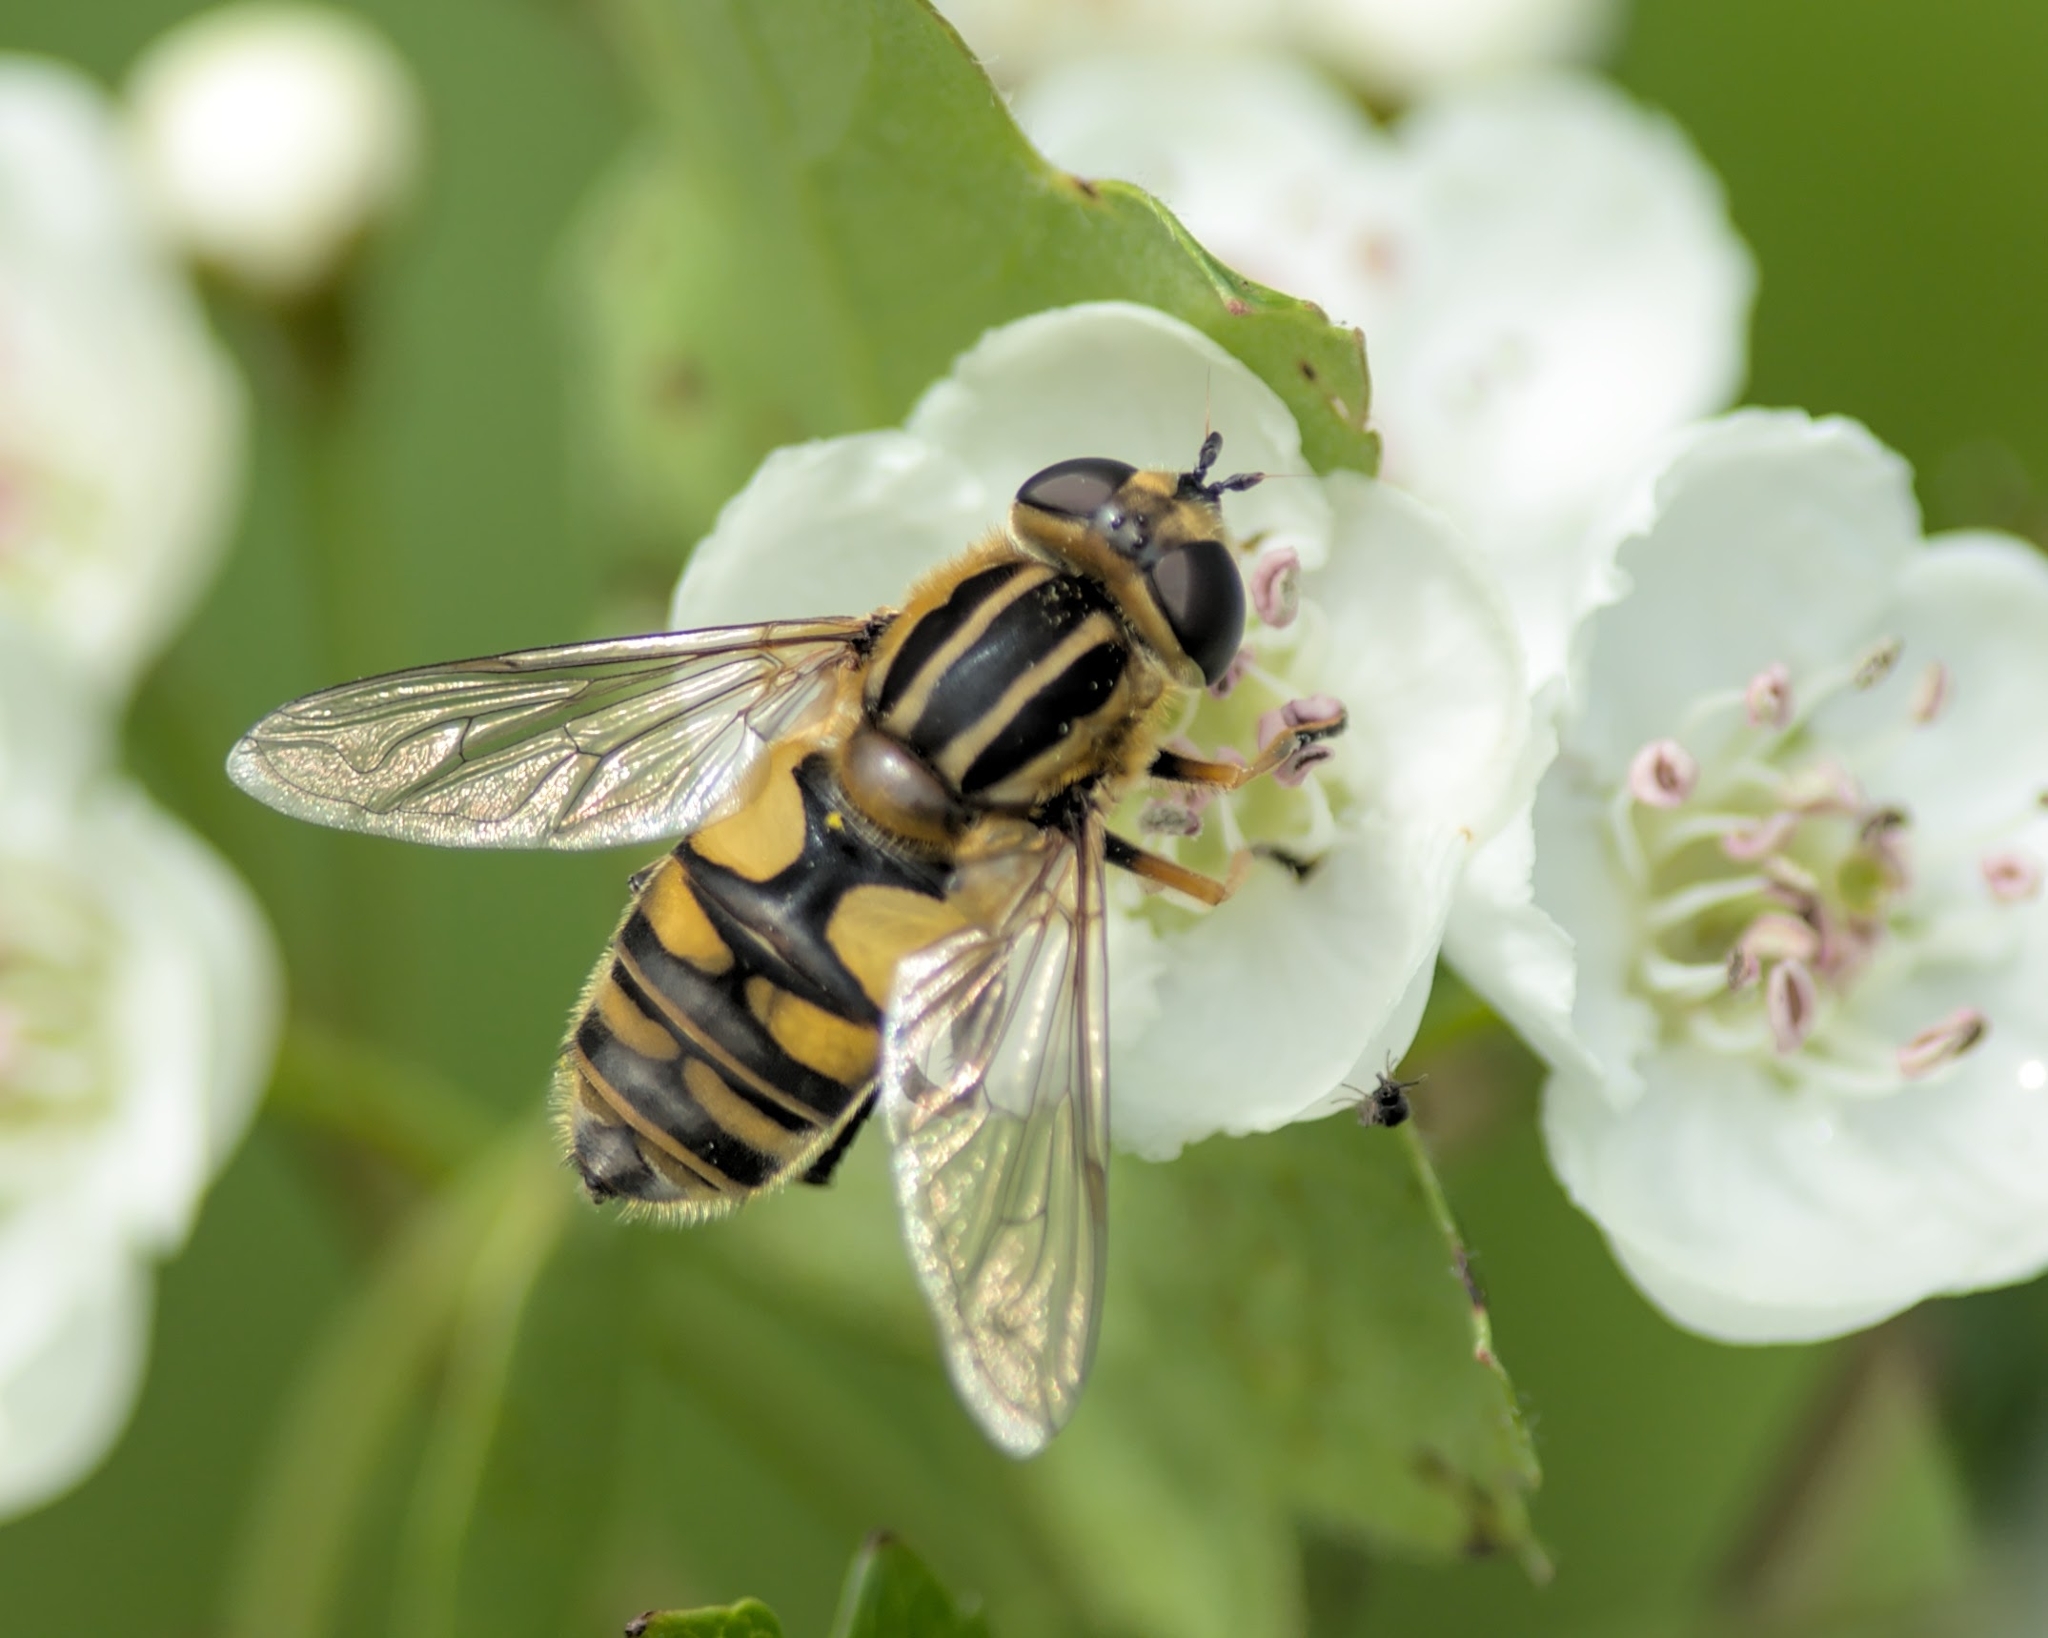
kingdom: Animalia
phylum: Arthropoda
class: Insecta
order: Diptera
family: Syrphidae
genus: Helophilus
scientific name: Helophilus pendulus
